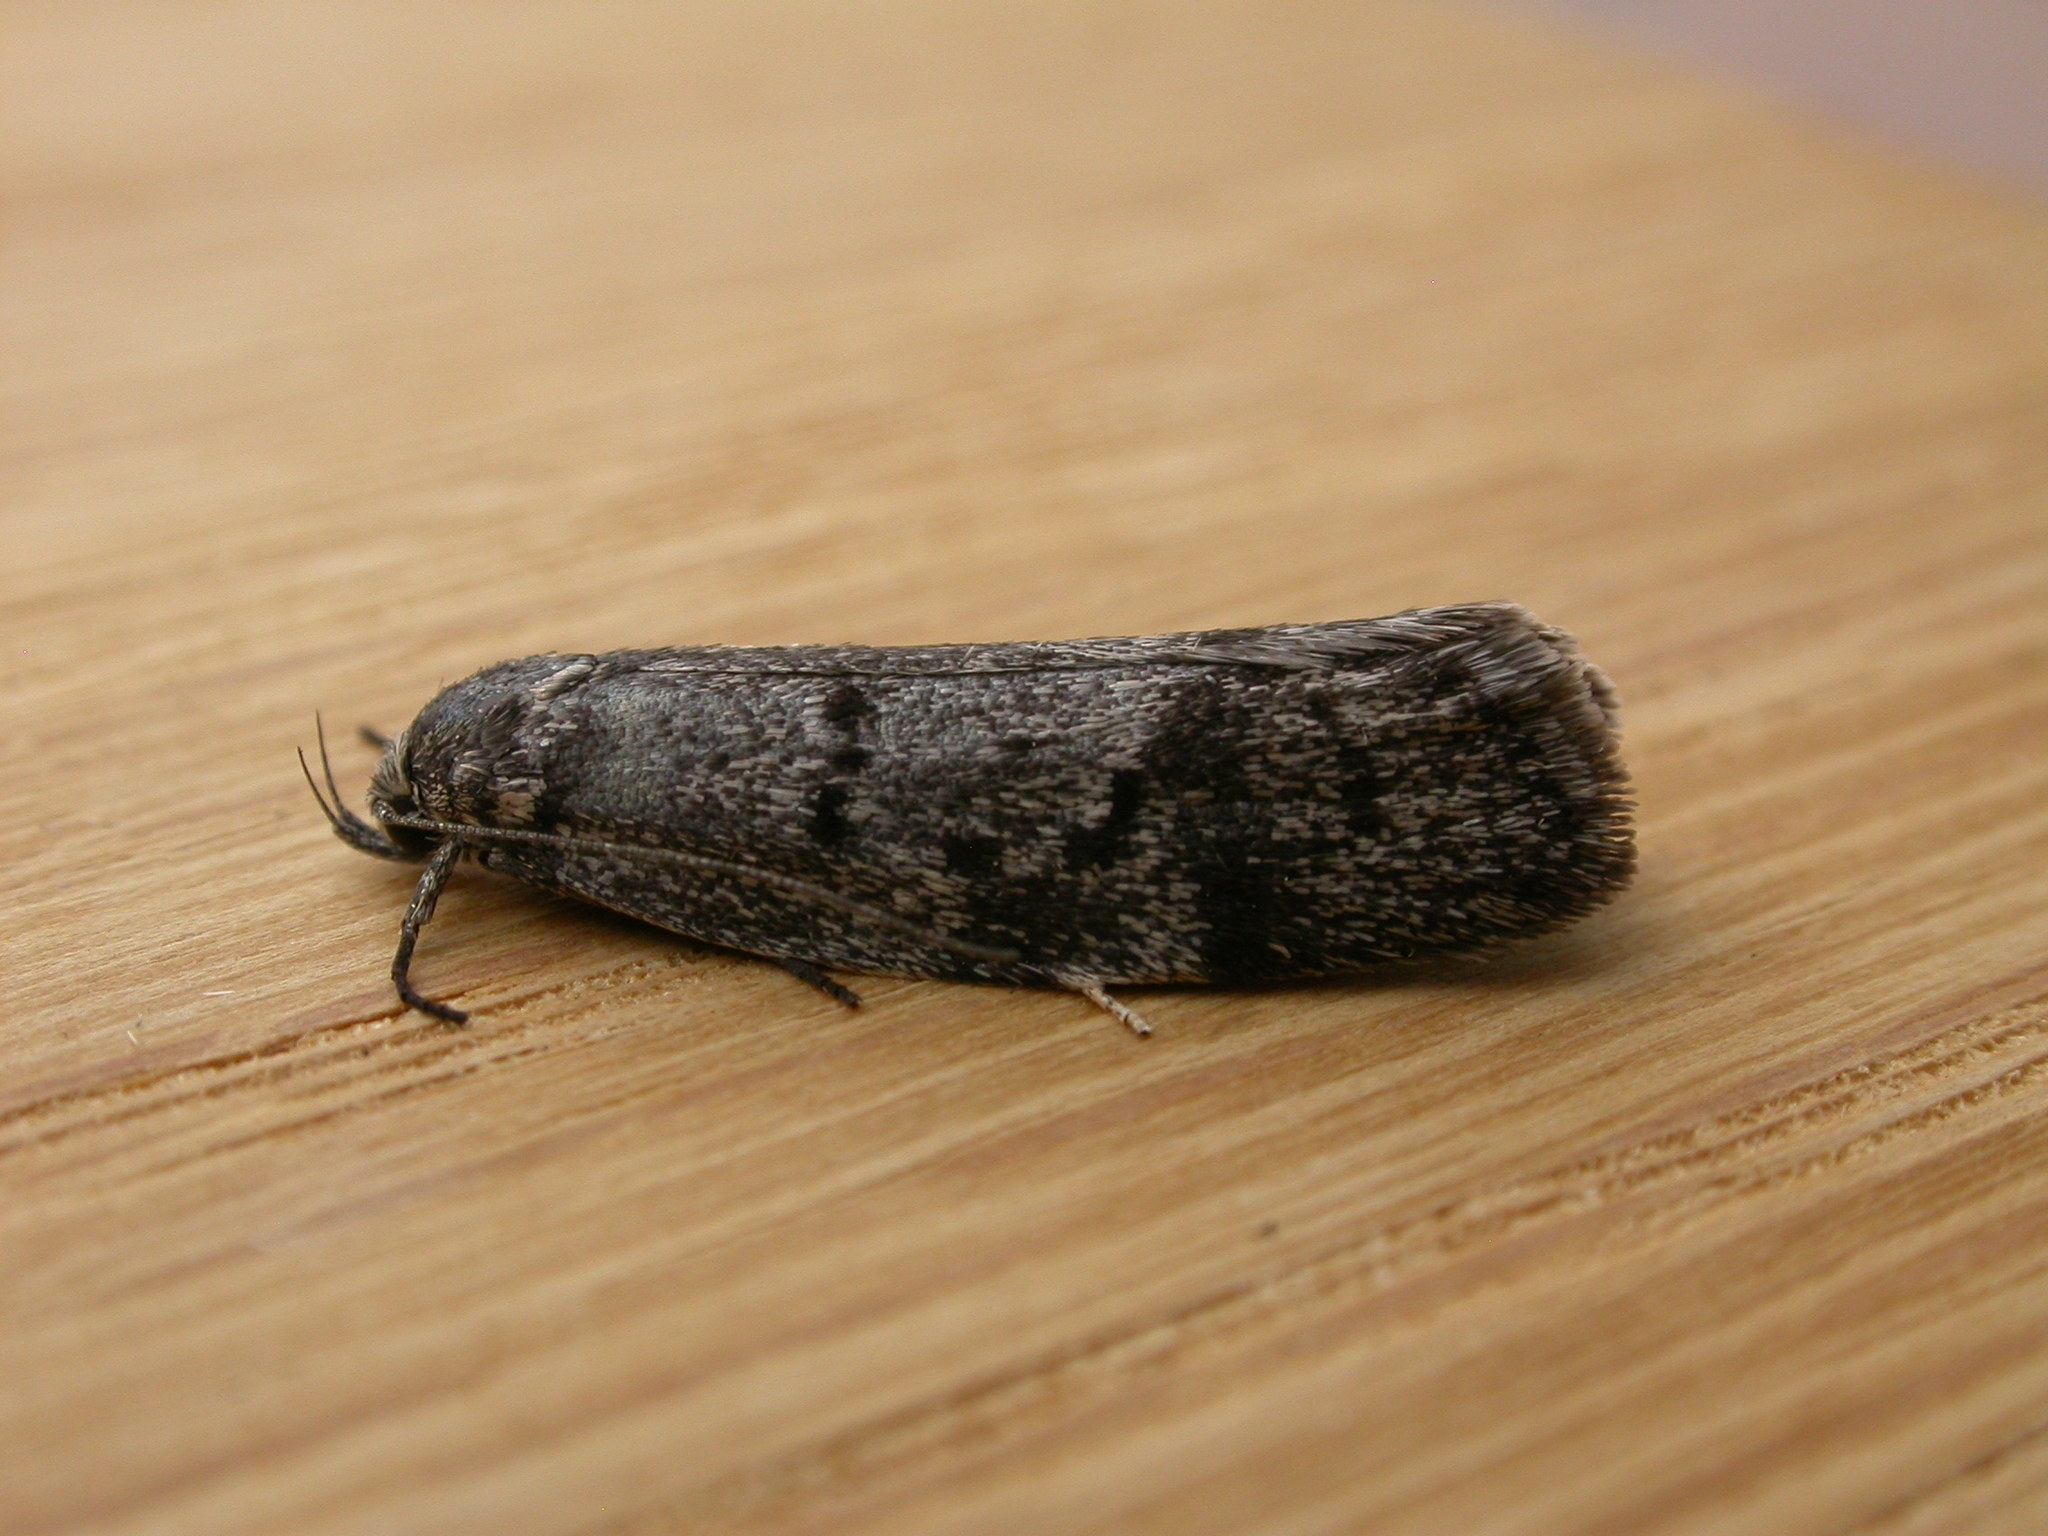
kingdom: Animalia
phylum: Arthropoda
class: Insecta
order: Lepidoptera
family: Oecophoridae
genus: Ericrypsina
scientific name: Ericrypsina chorodoxa
